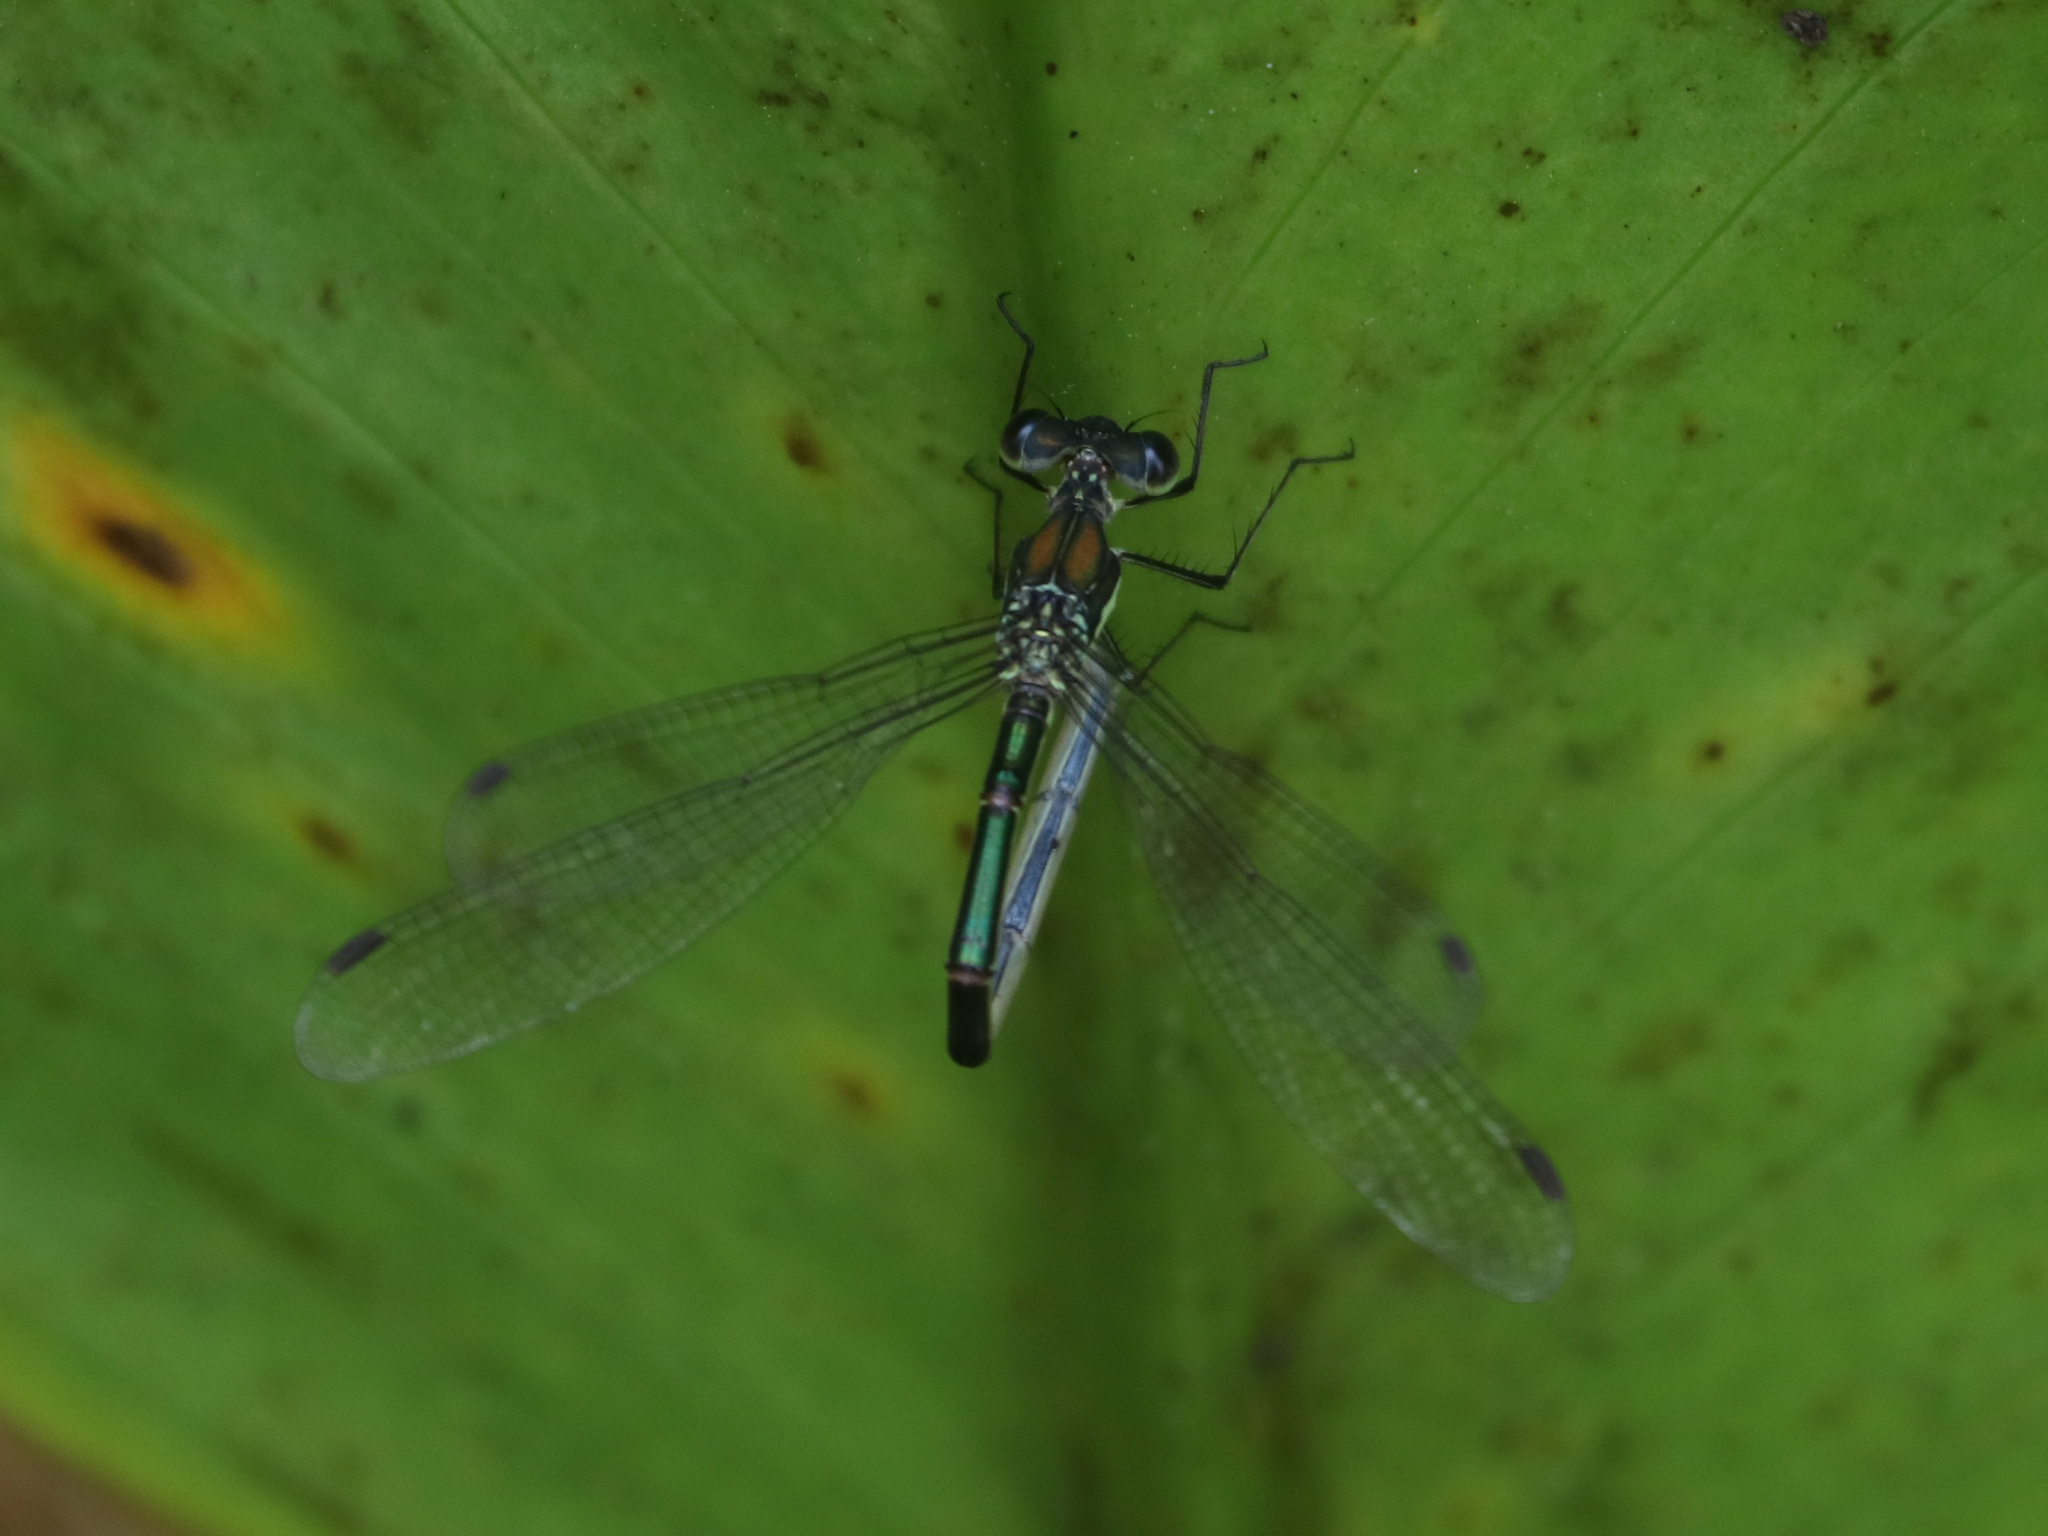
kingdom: Animalia
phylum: Arthropoda
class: Insecta
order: Odonata
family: Lestidae
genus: Lestes
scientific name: Lestes dryas
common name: Scarce emerald damselfly
